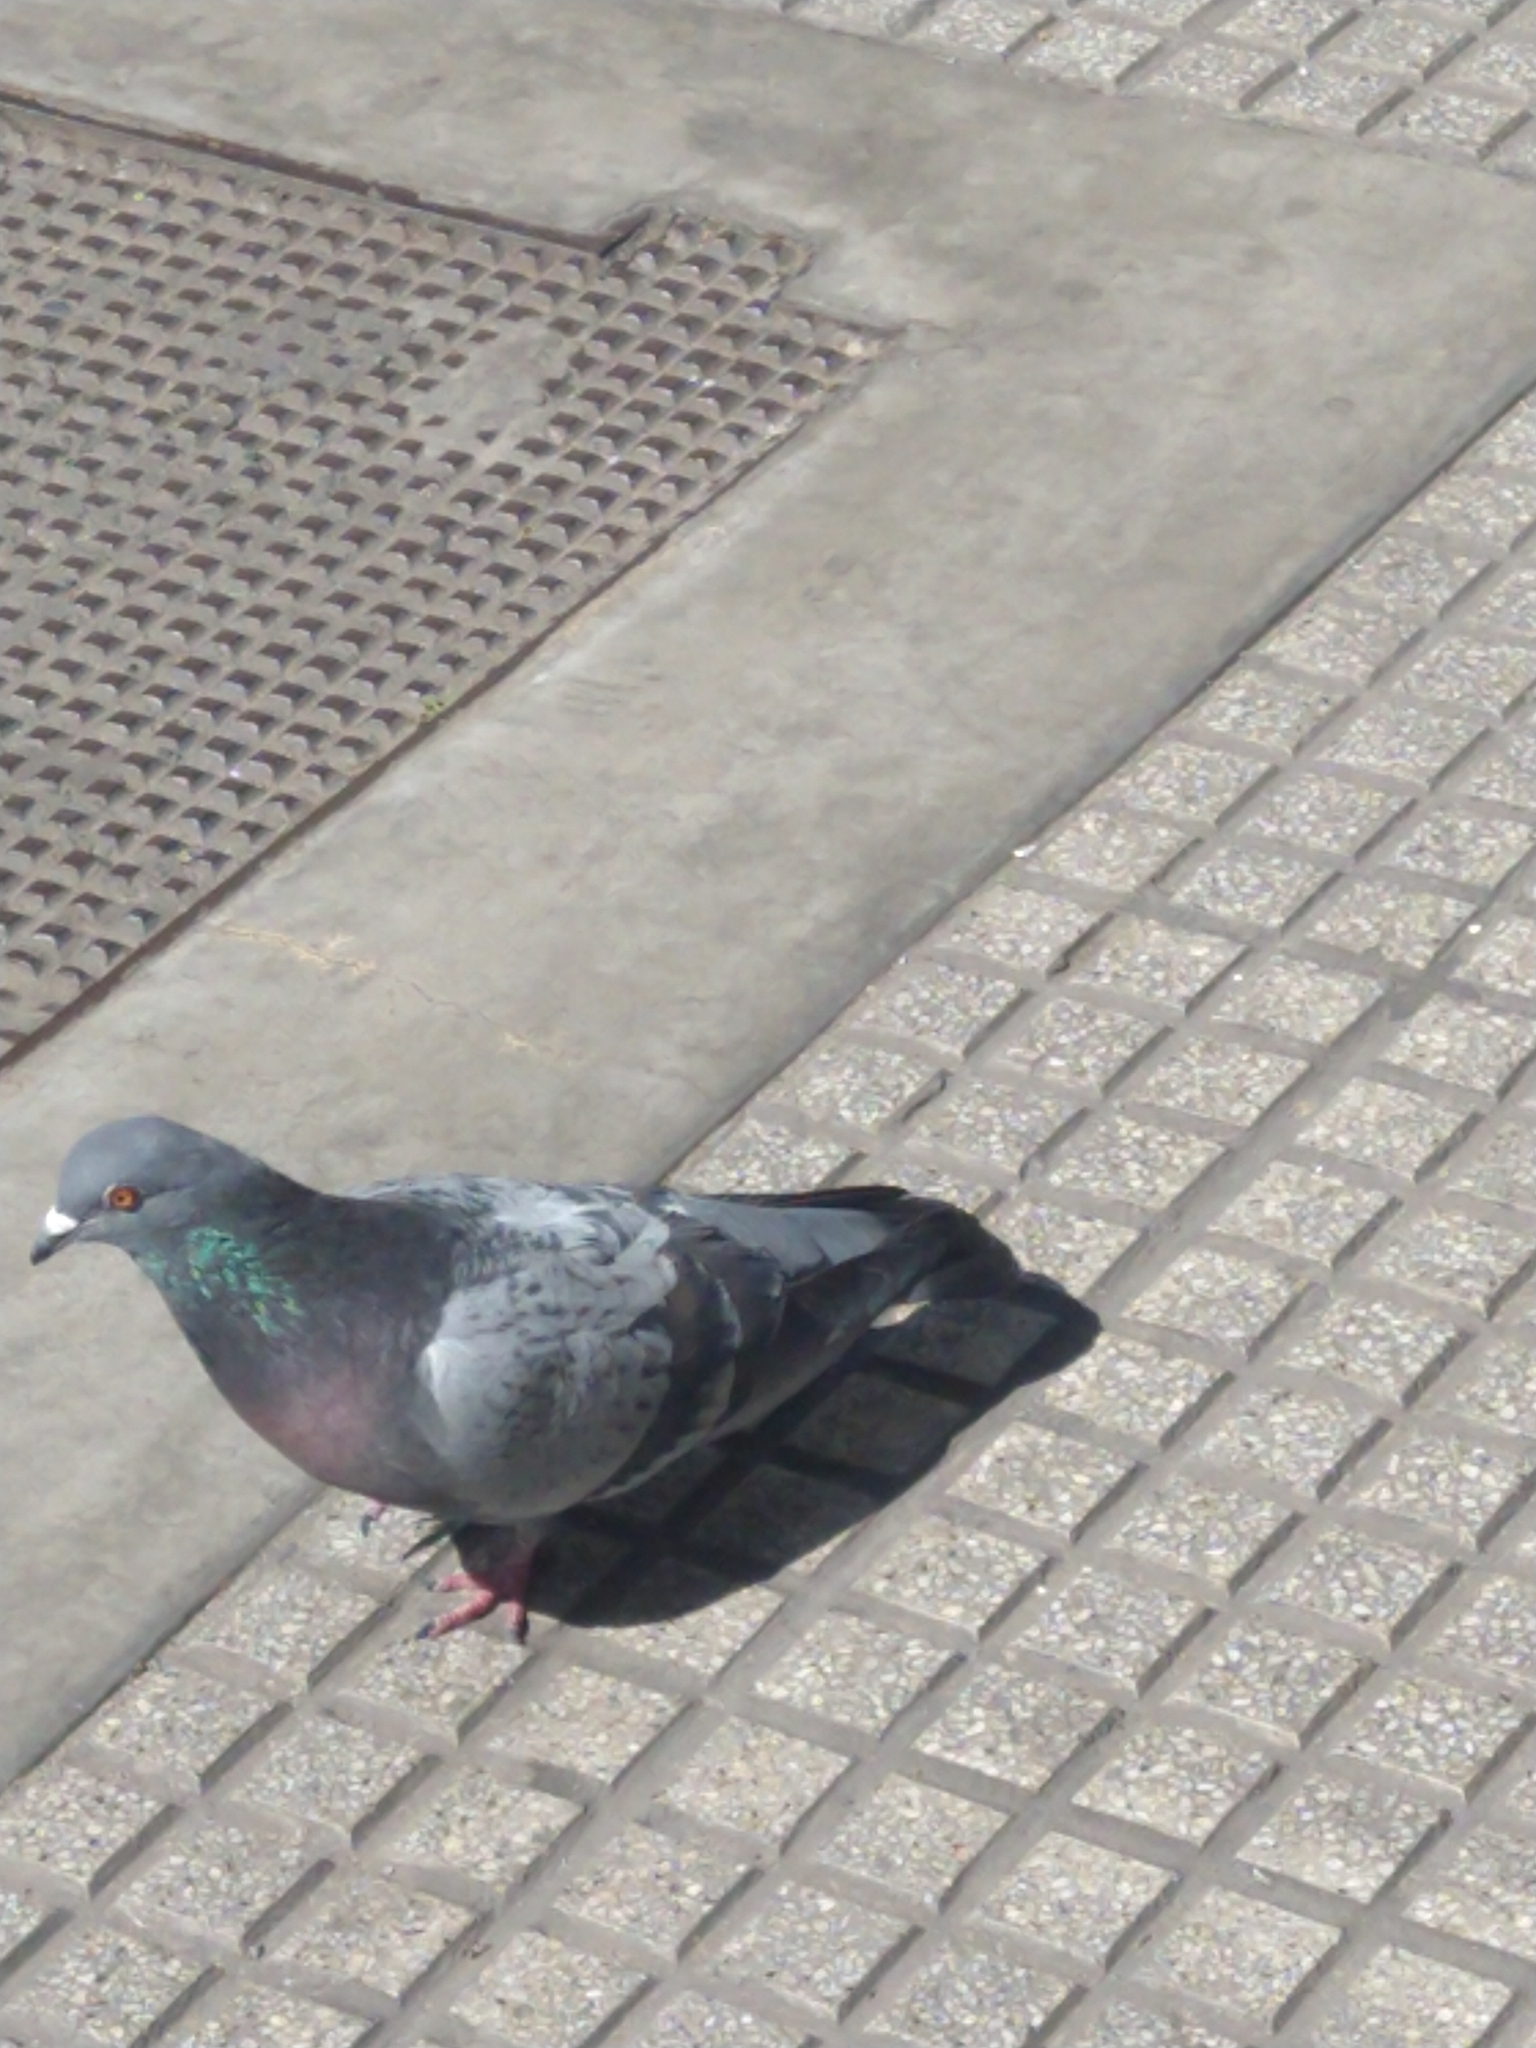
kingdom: Animalia
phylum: Chordata
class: Aves
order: Columbiformes
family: Columbidae
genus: Columba
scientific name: Columba livia
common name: Rock pigeon
